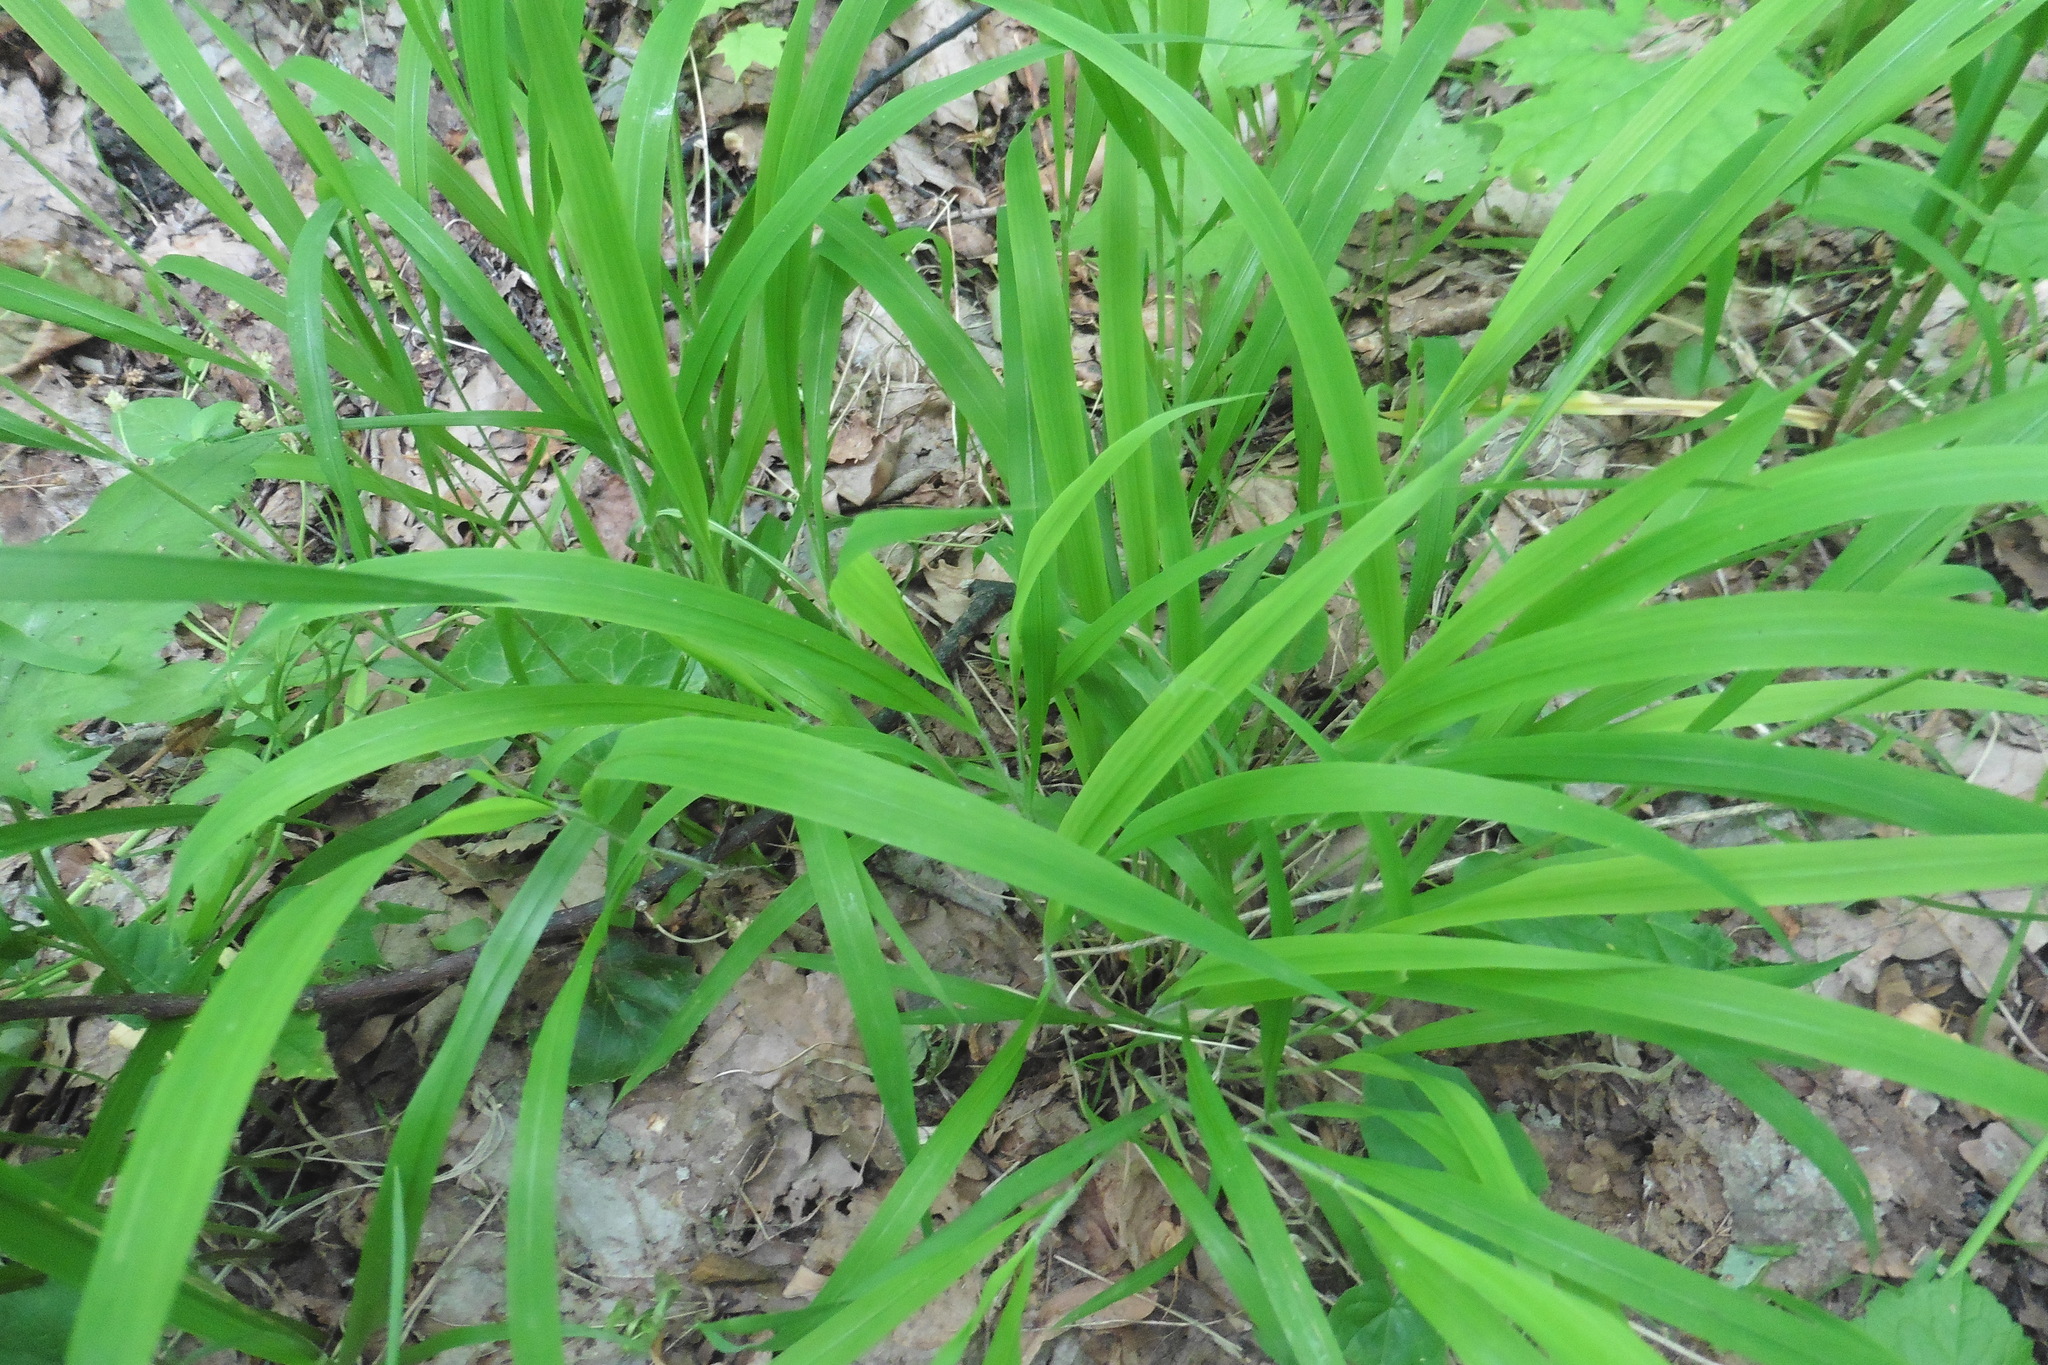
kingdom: Plantae
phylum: Tracheophyta
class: Liliopsida
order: Poales
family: Poaceae
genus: Brachypodium
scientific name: Brachypodium sylvaticum
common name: False-brome
